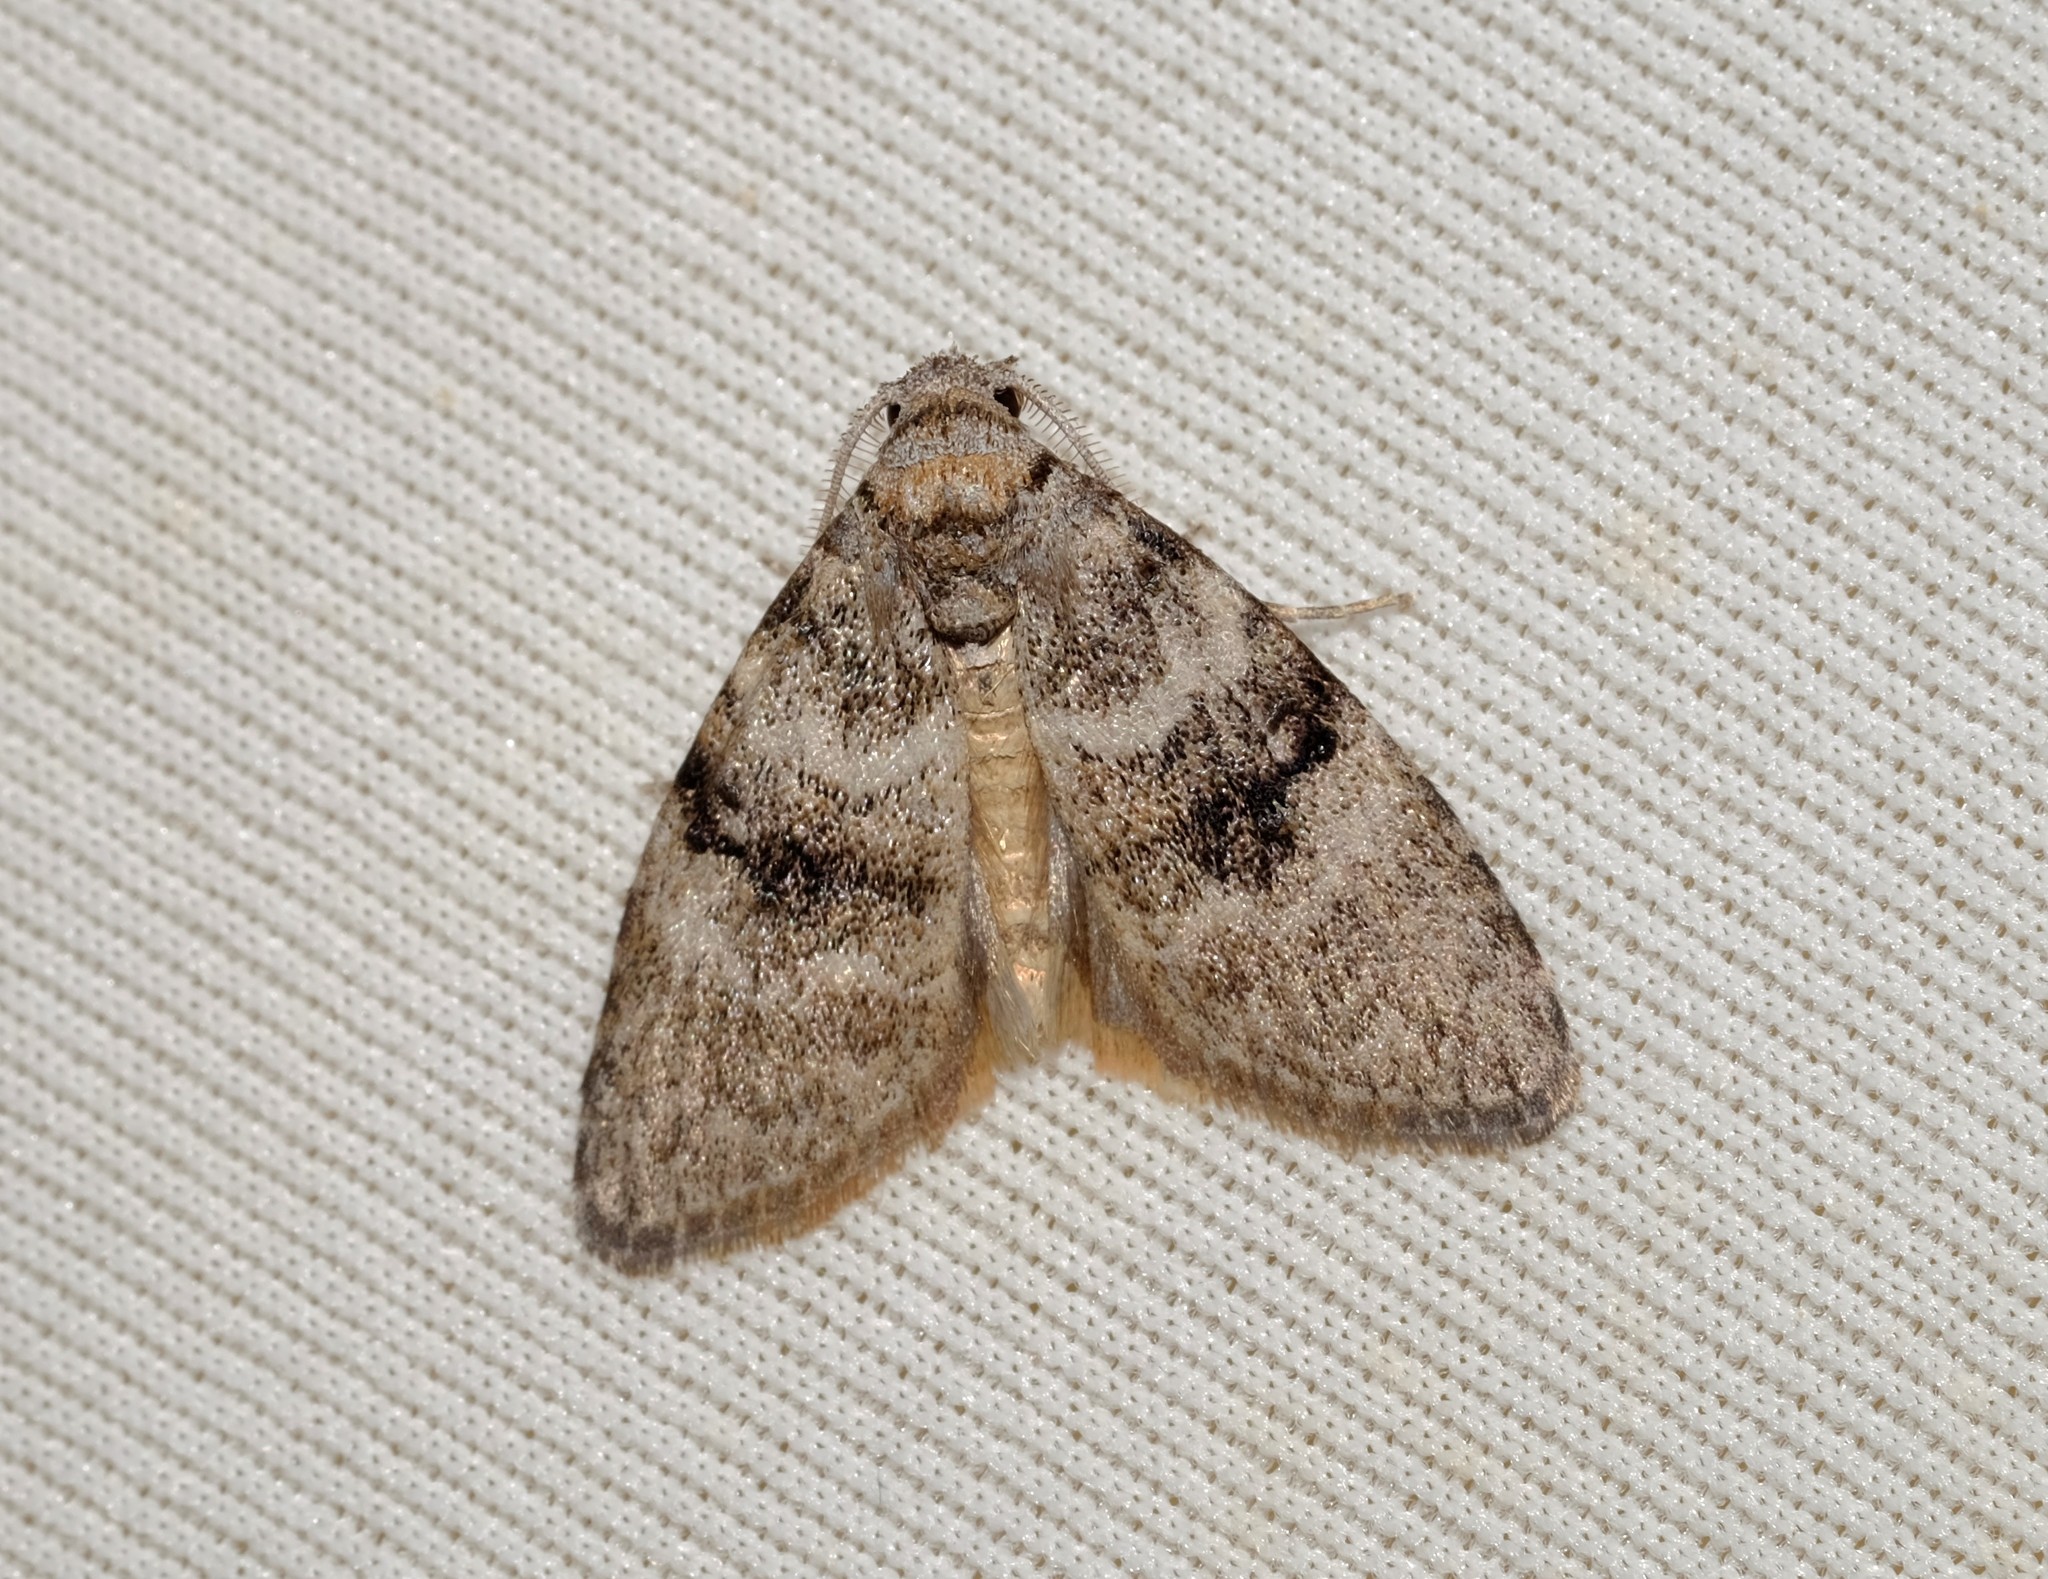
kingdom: Animalia
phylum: Arthropoda
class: Insecta
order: Lepidoptera
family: Nolidae
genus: Uraba
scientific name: Uraba lugens
